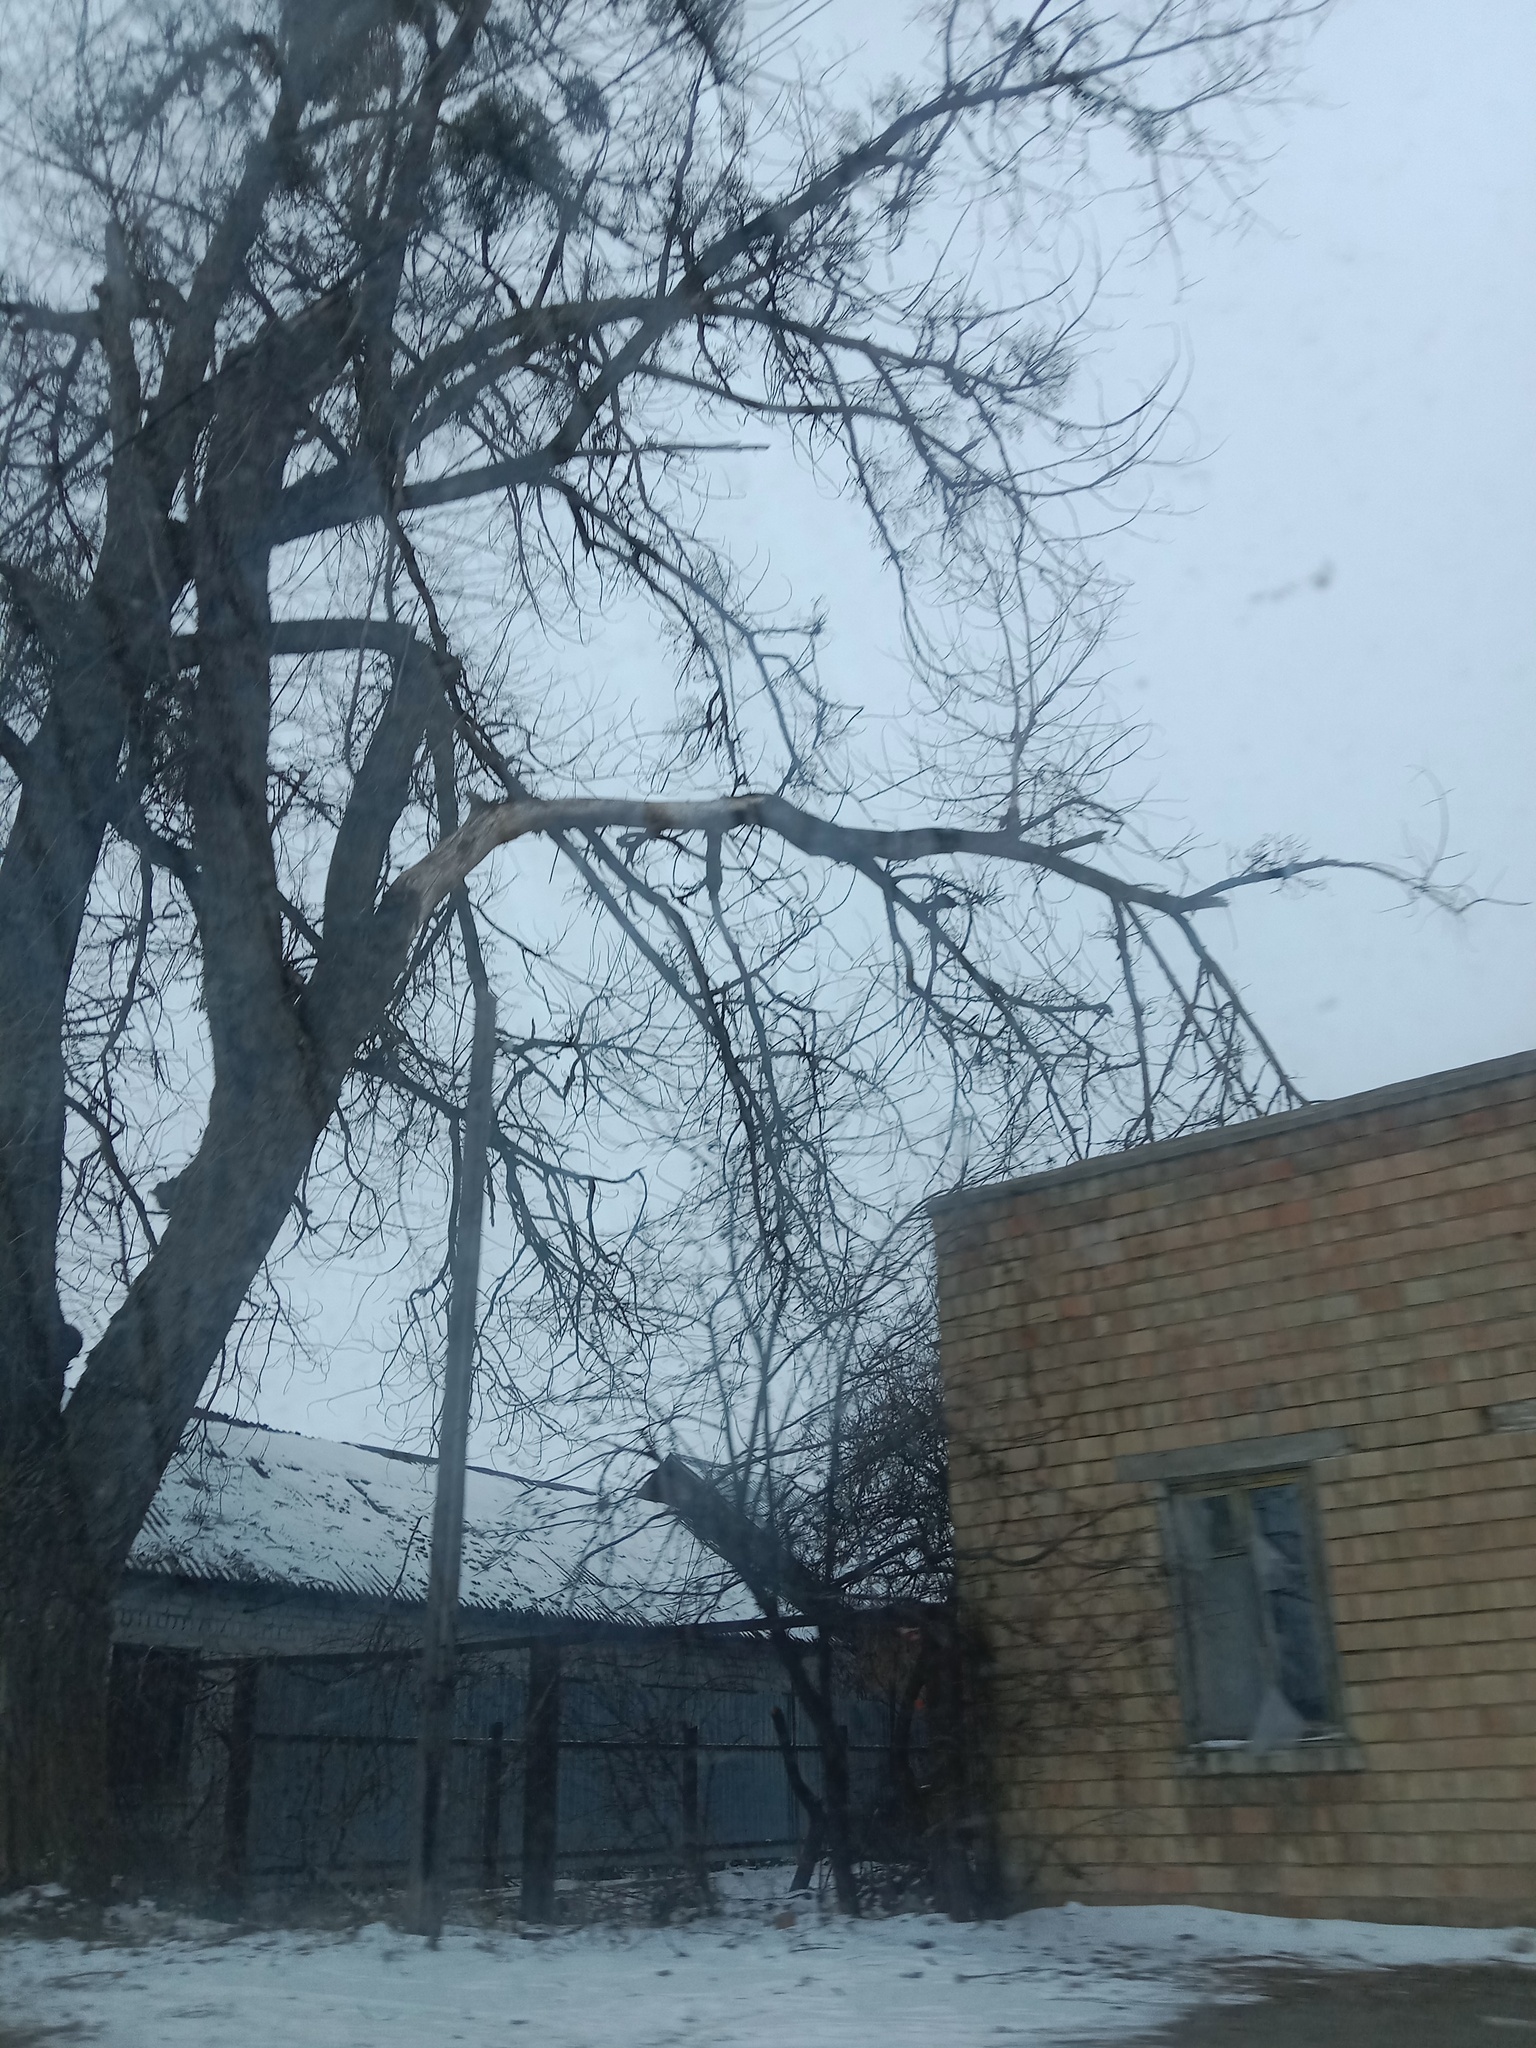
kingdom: Plantae
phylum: Tracheophyta
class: Magnoliopsida
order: Santalales
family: Viscaceae
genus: Viscum
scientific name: Viscum album
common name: Mistletoe
